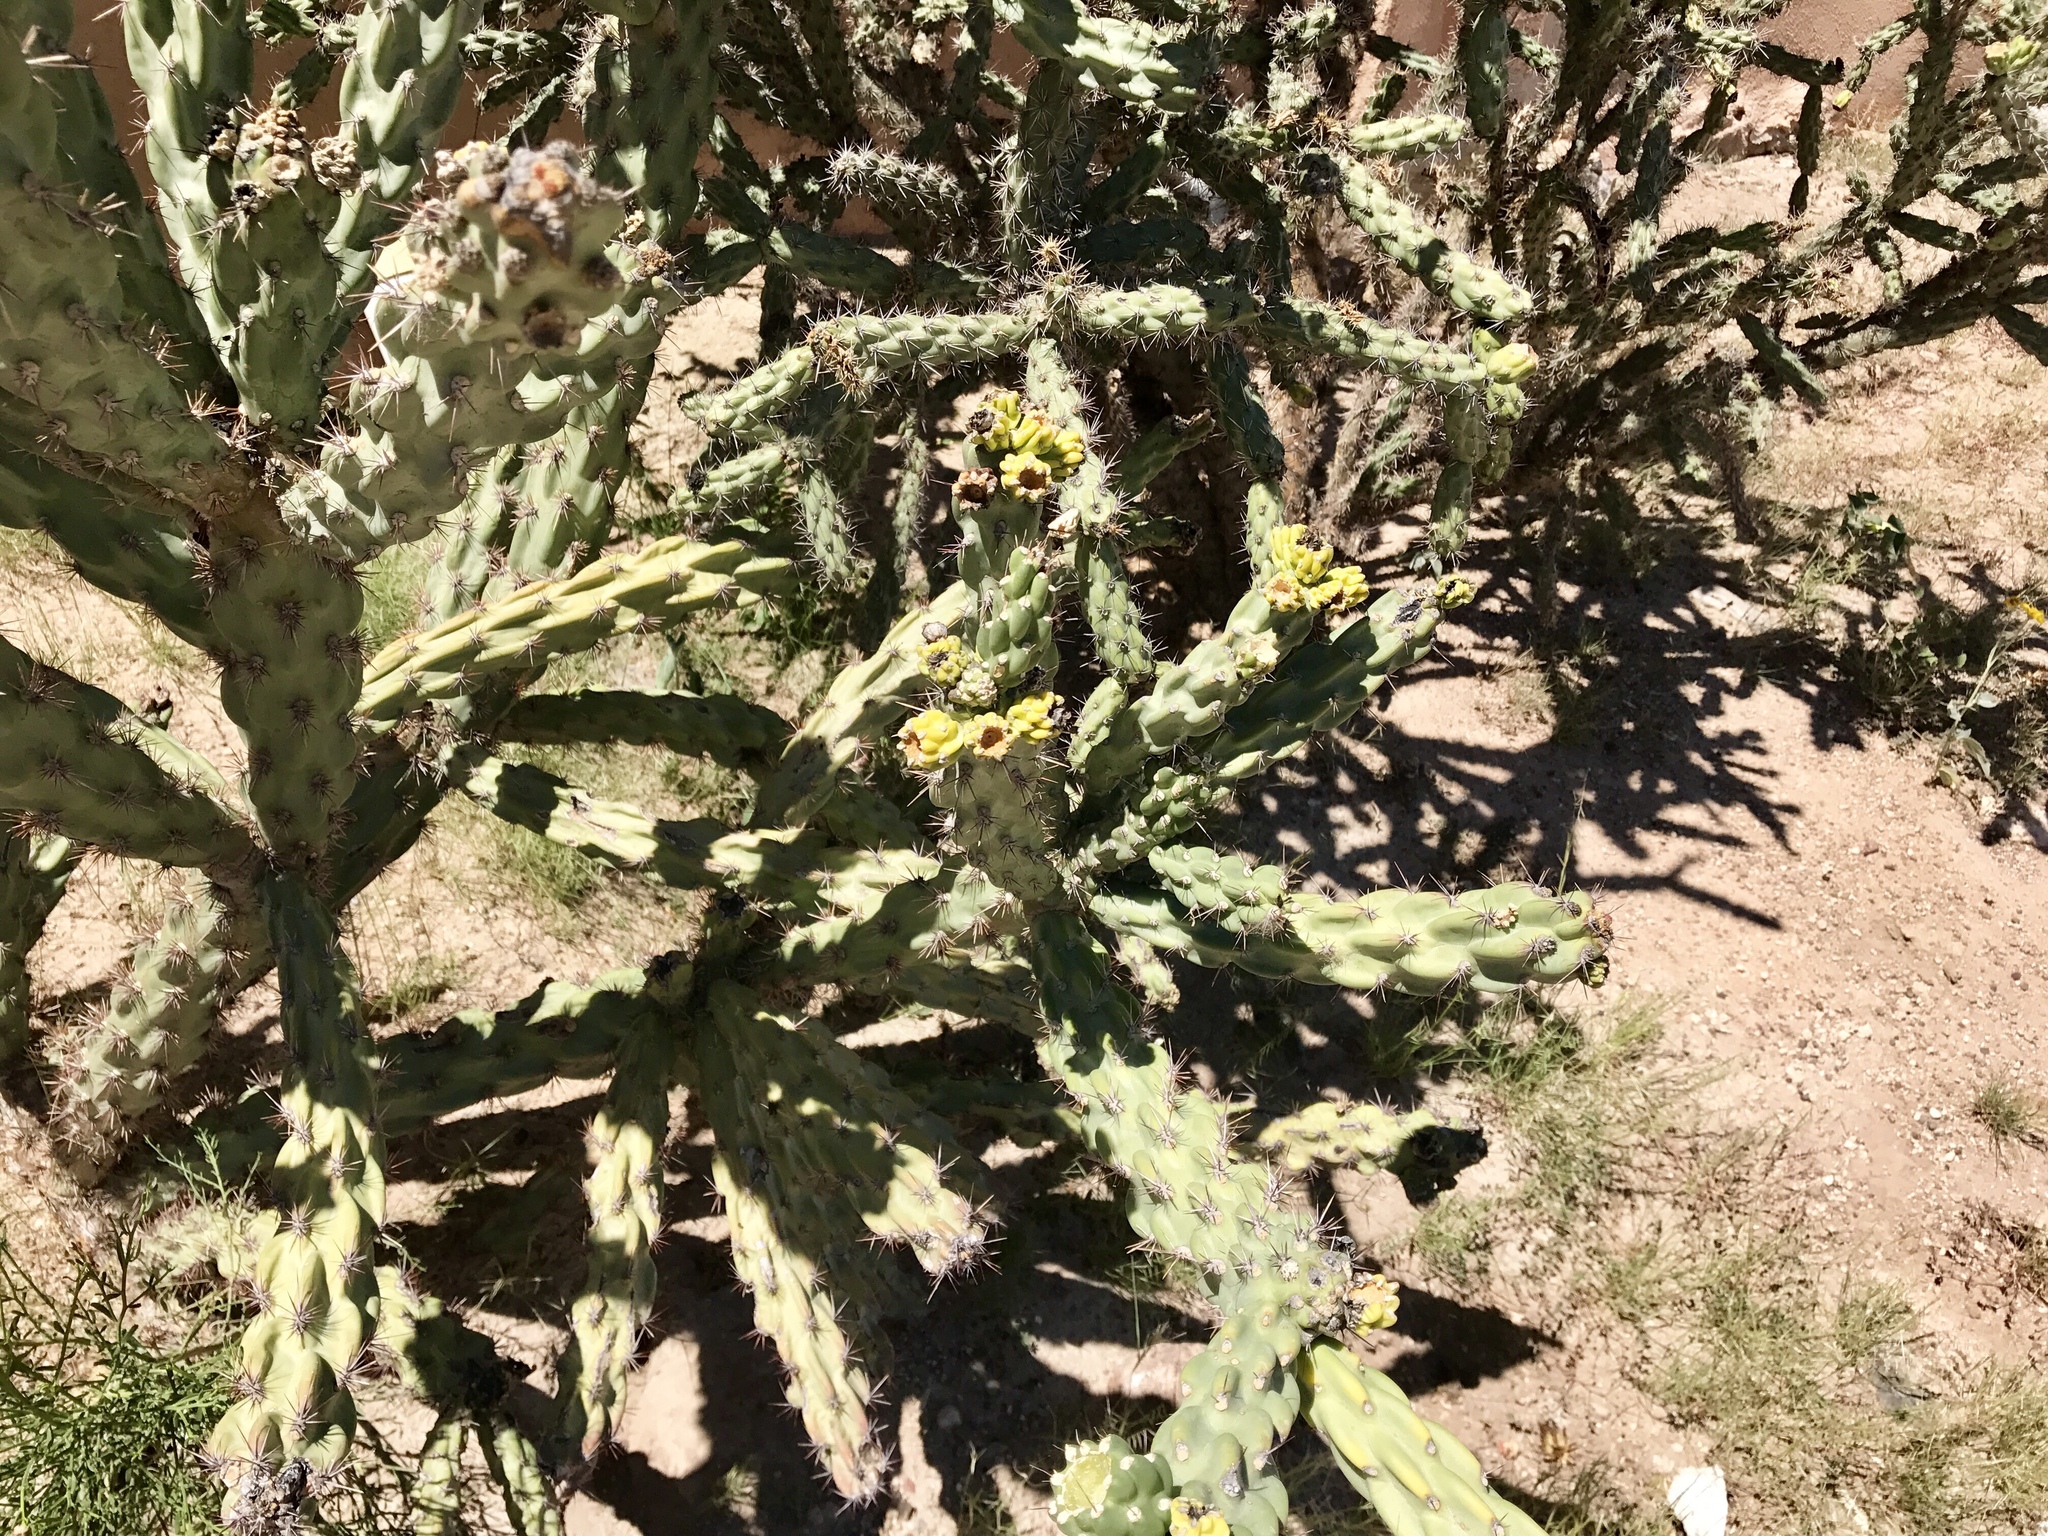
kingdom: Plantae
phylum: Tracheophyta
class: Magnoliopsida
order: Caryophyllales
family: Cactaceae
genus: Cylindropuntia
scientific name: Cylindropuntia imbricata
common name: Candelabrum cactus
